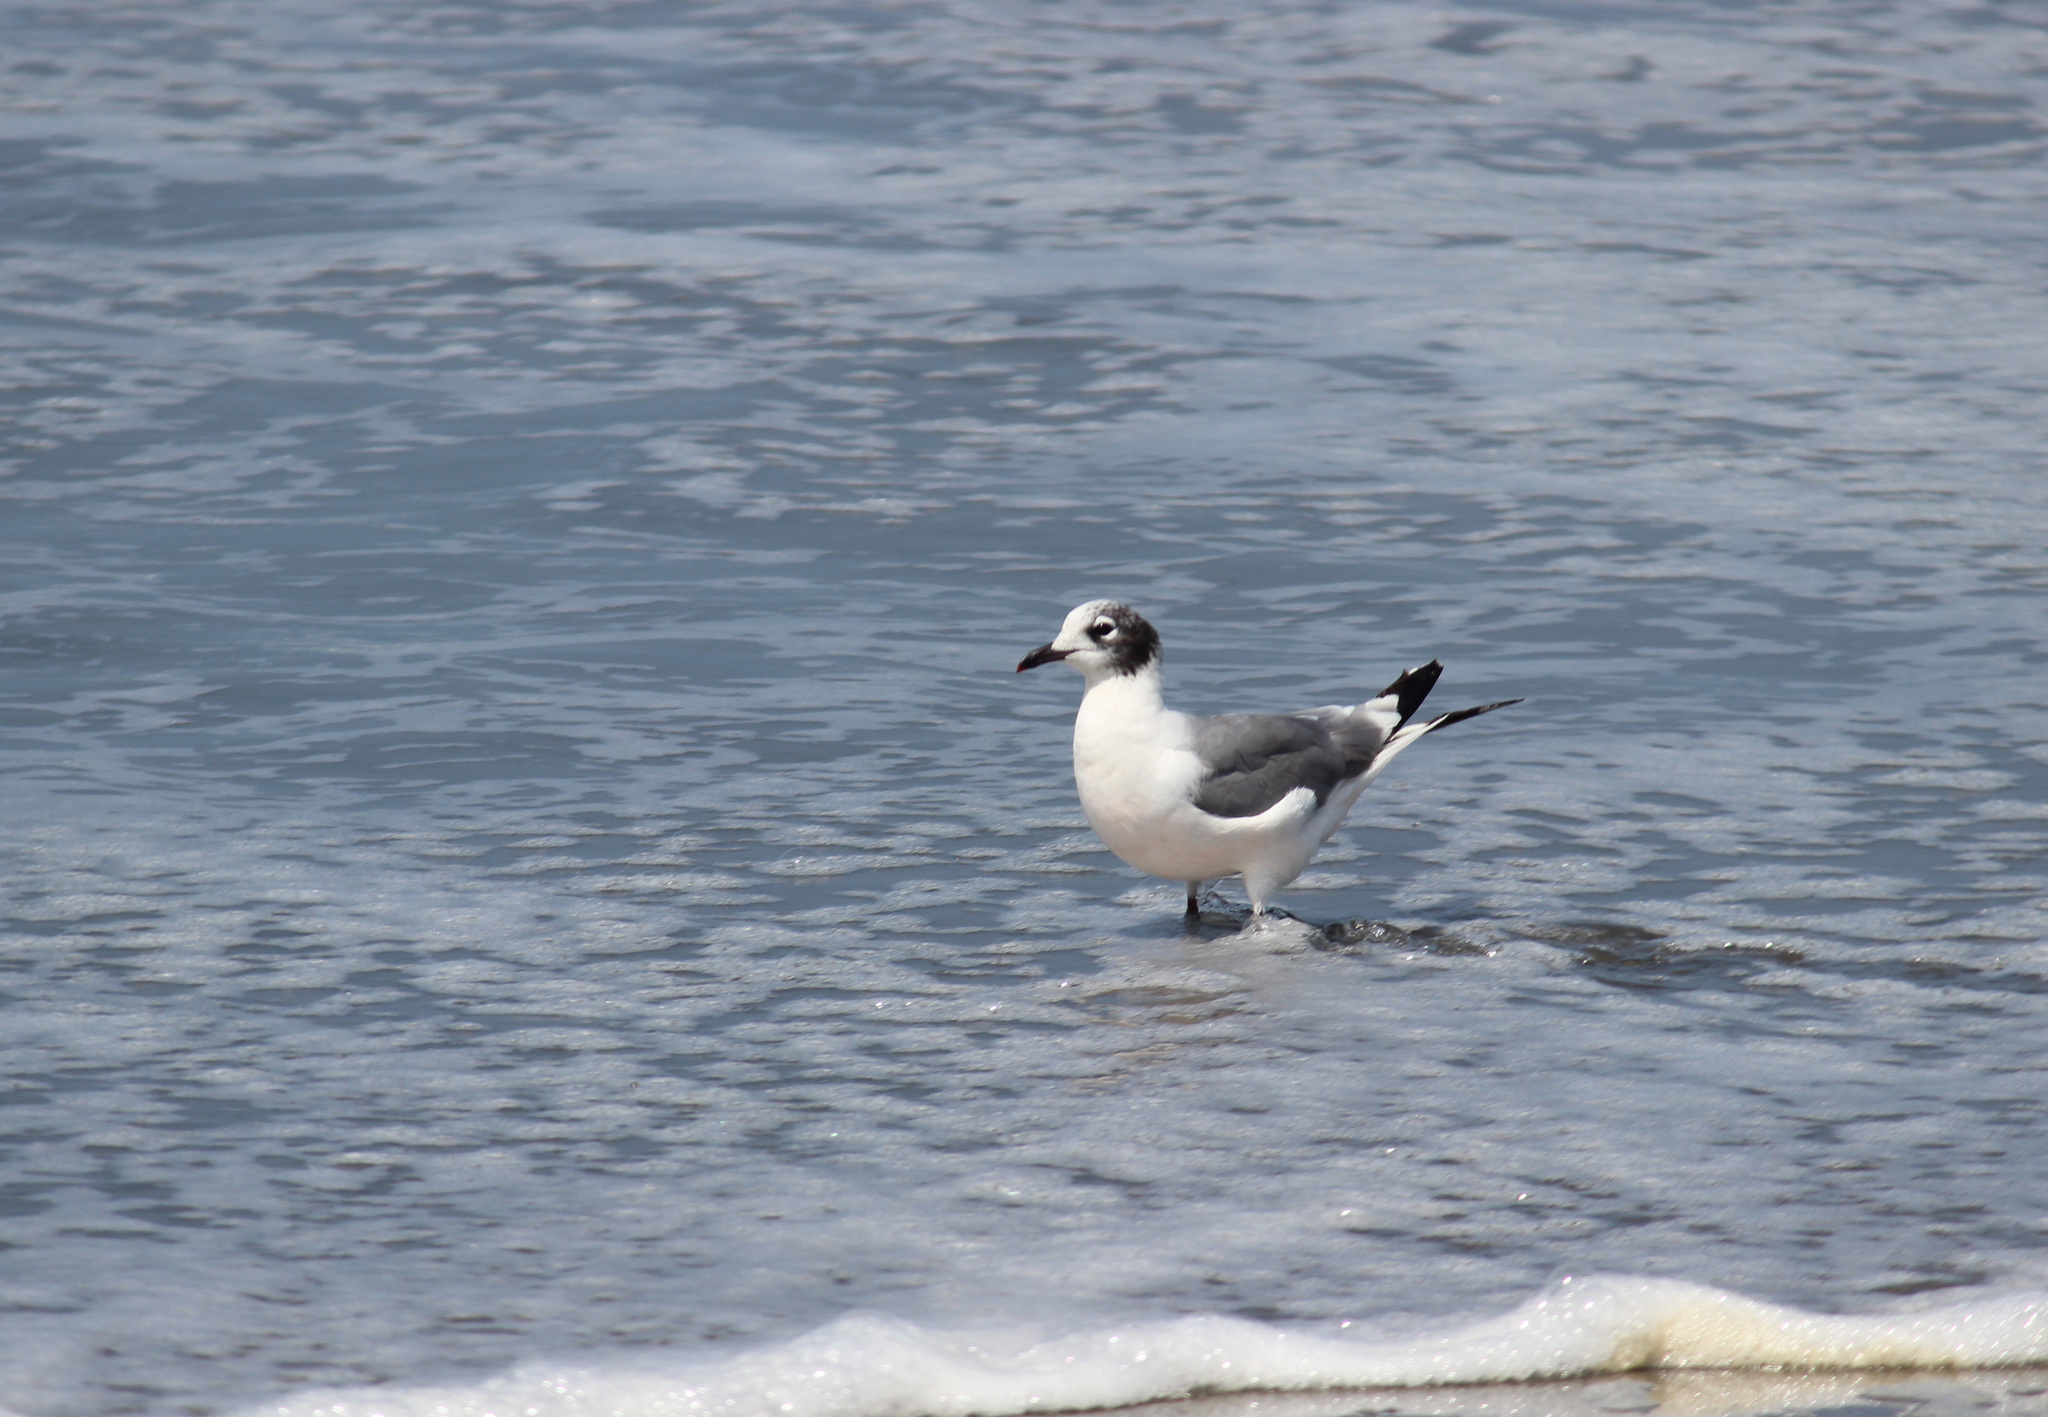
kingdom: Animalia
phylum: Chordata
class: Aves
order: Charadriiformes
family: Laridae
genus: Leucophaeus
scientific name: Leucophaeus pipixcan
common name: Franklin's gull
